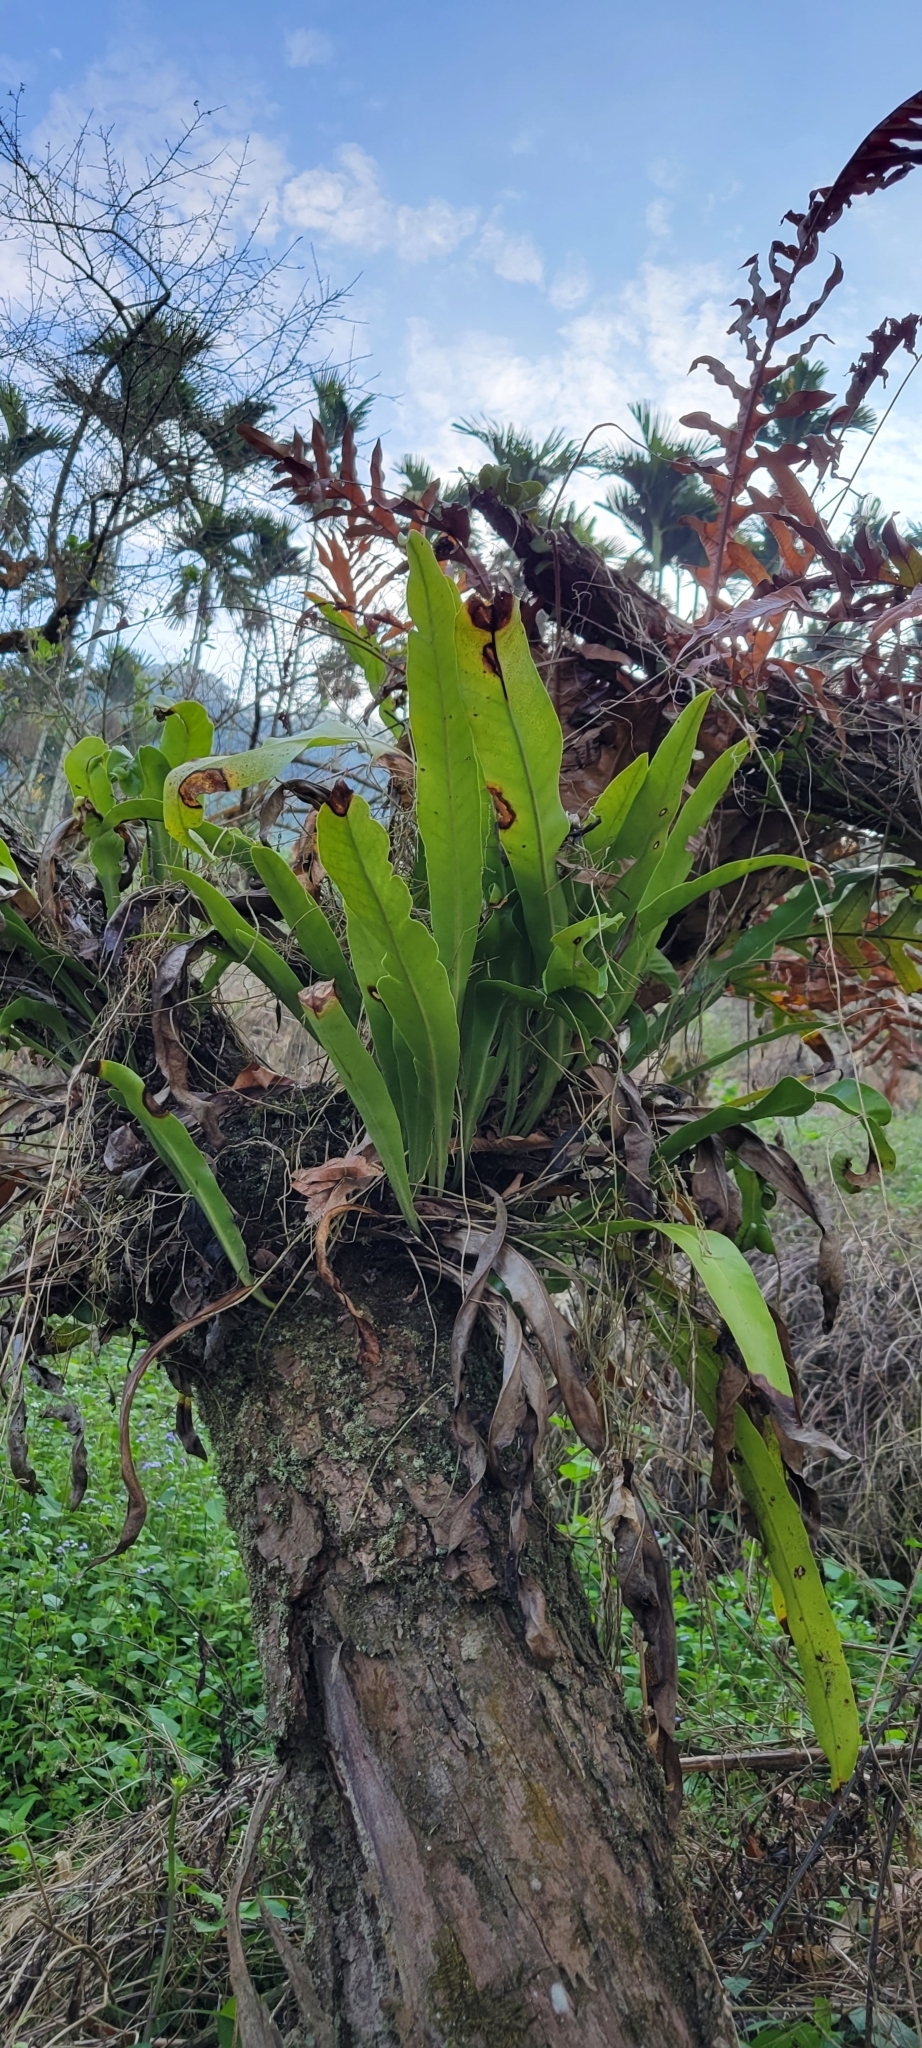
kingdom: Plantae
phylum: Tracheophyta
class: Polypodiopsida
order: Polypodiales
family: Polypodiaceae
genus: Microsorum
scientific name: Microsorum punctatum
